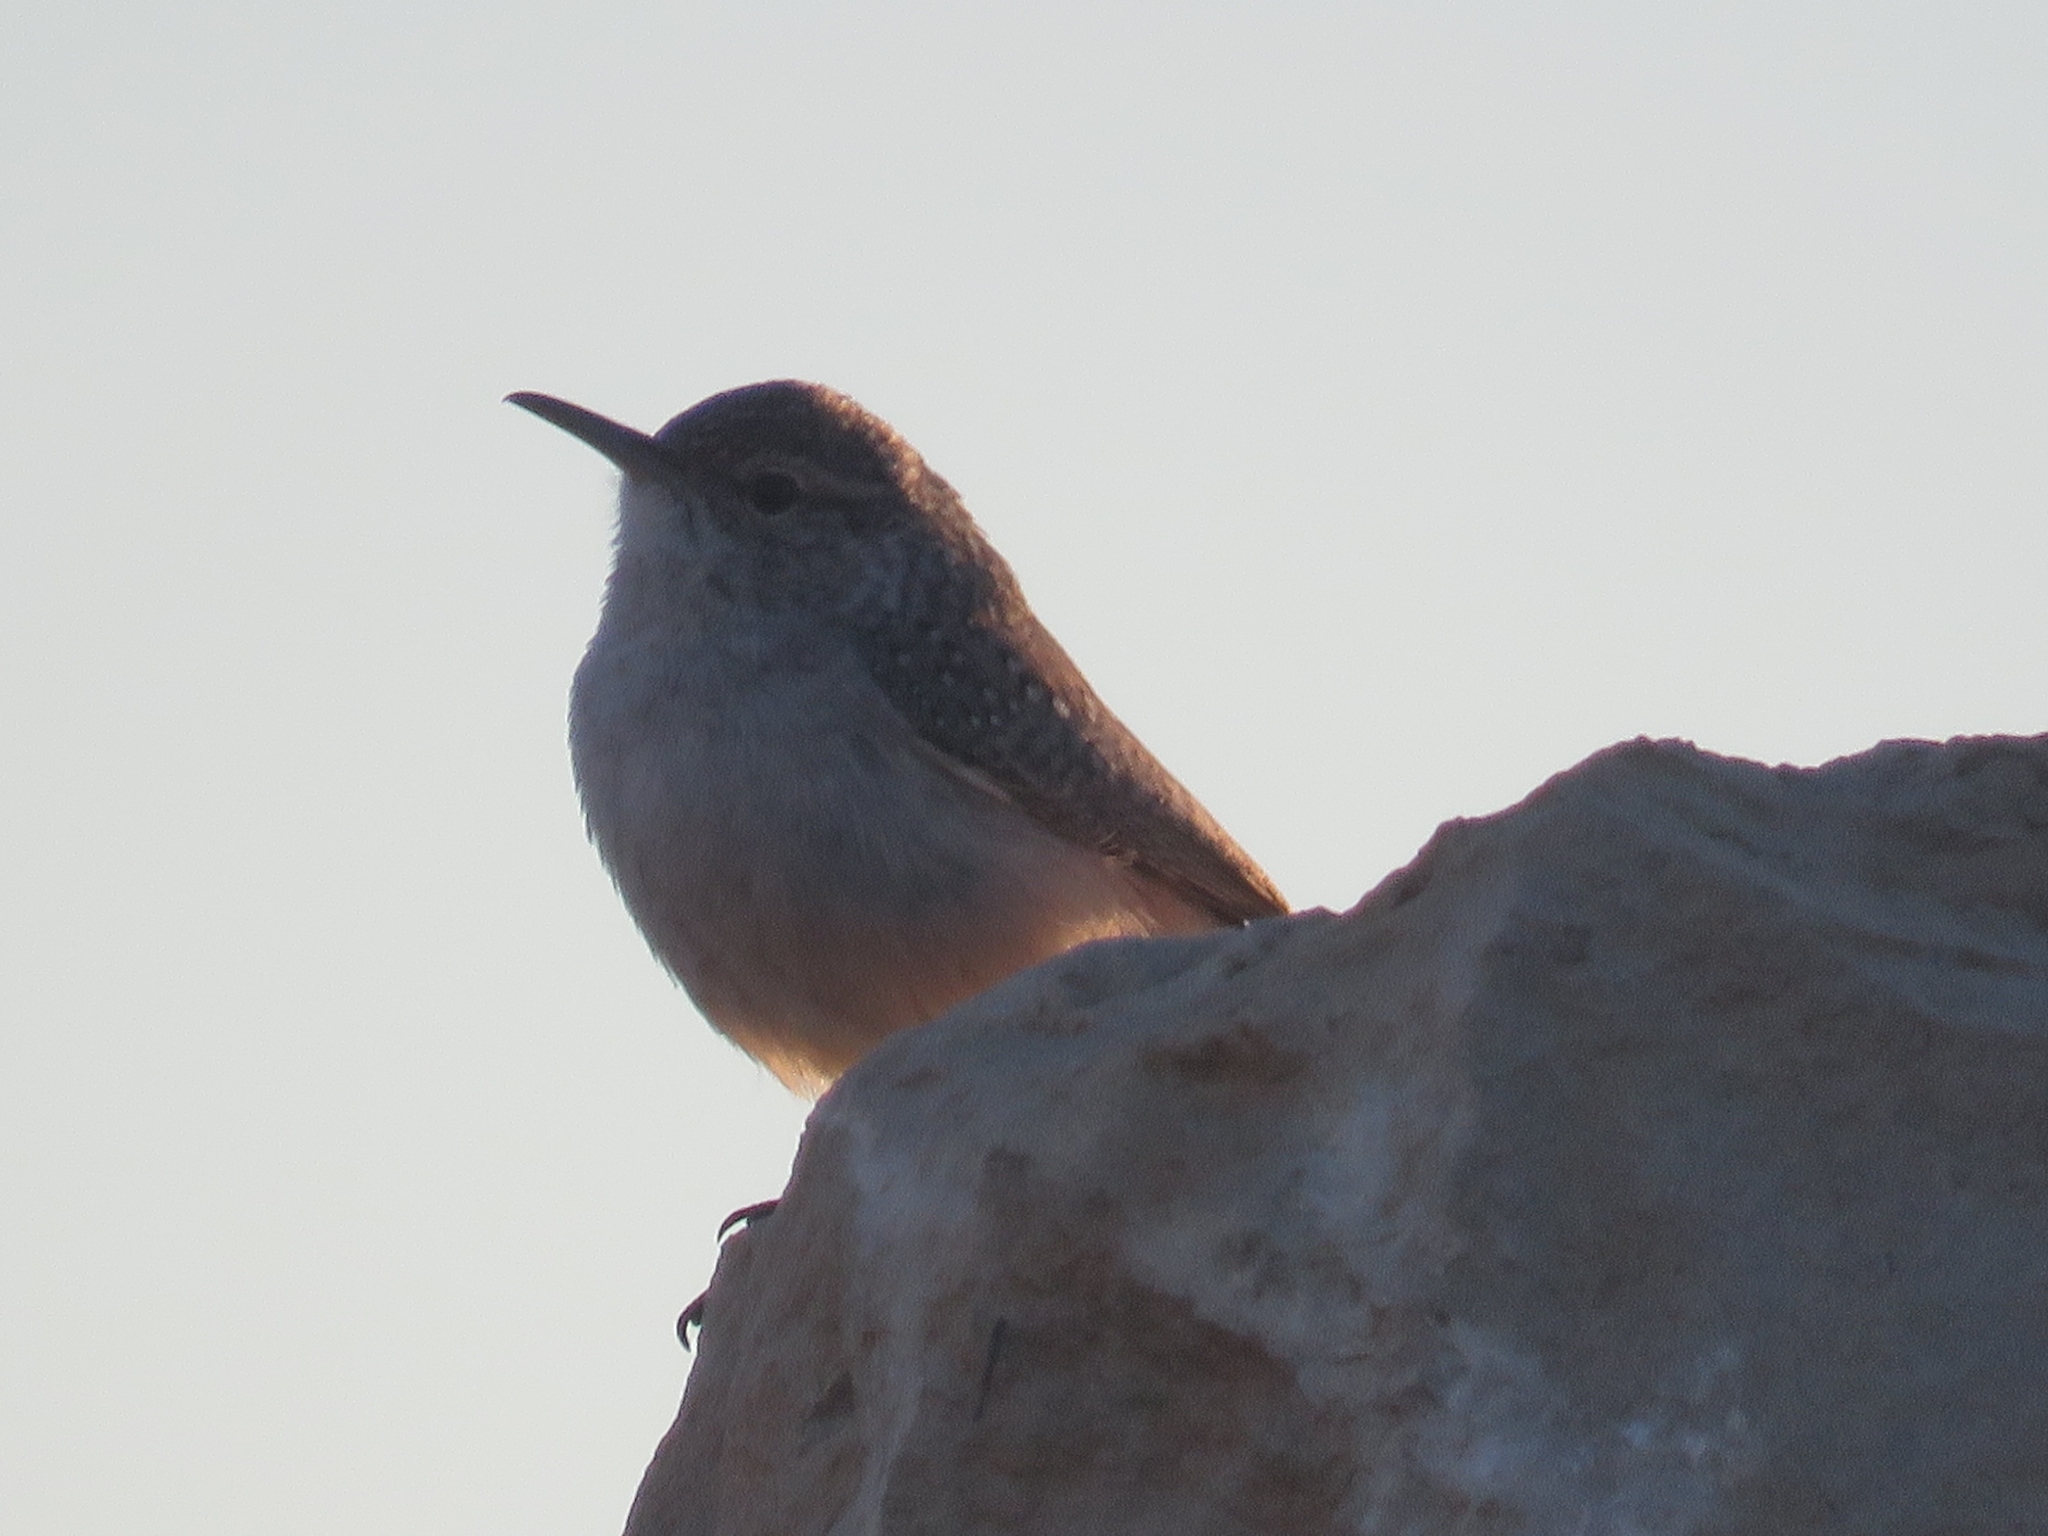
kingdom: Animalia
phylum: Chordata
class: Aves
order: Passeriformes
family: Troglodytidae
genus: Salpinctes
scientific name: Salpinctes obsoletus
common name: Rock wren
